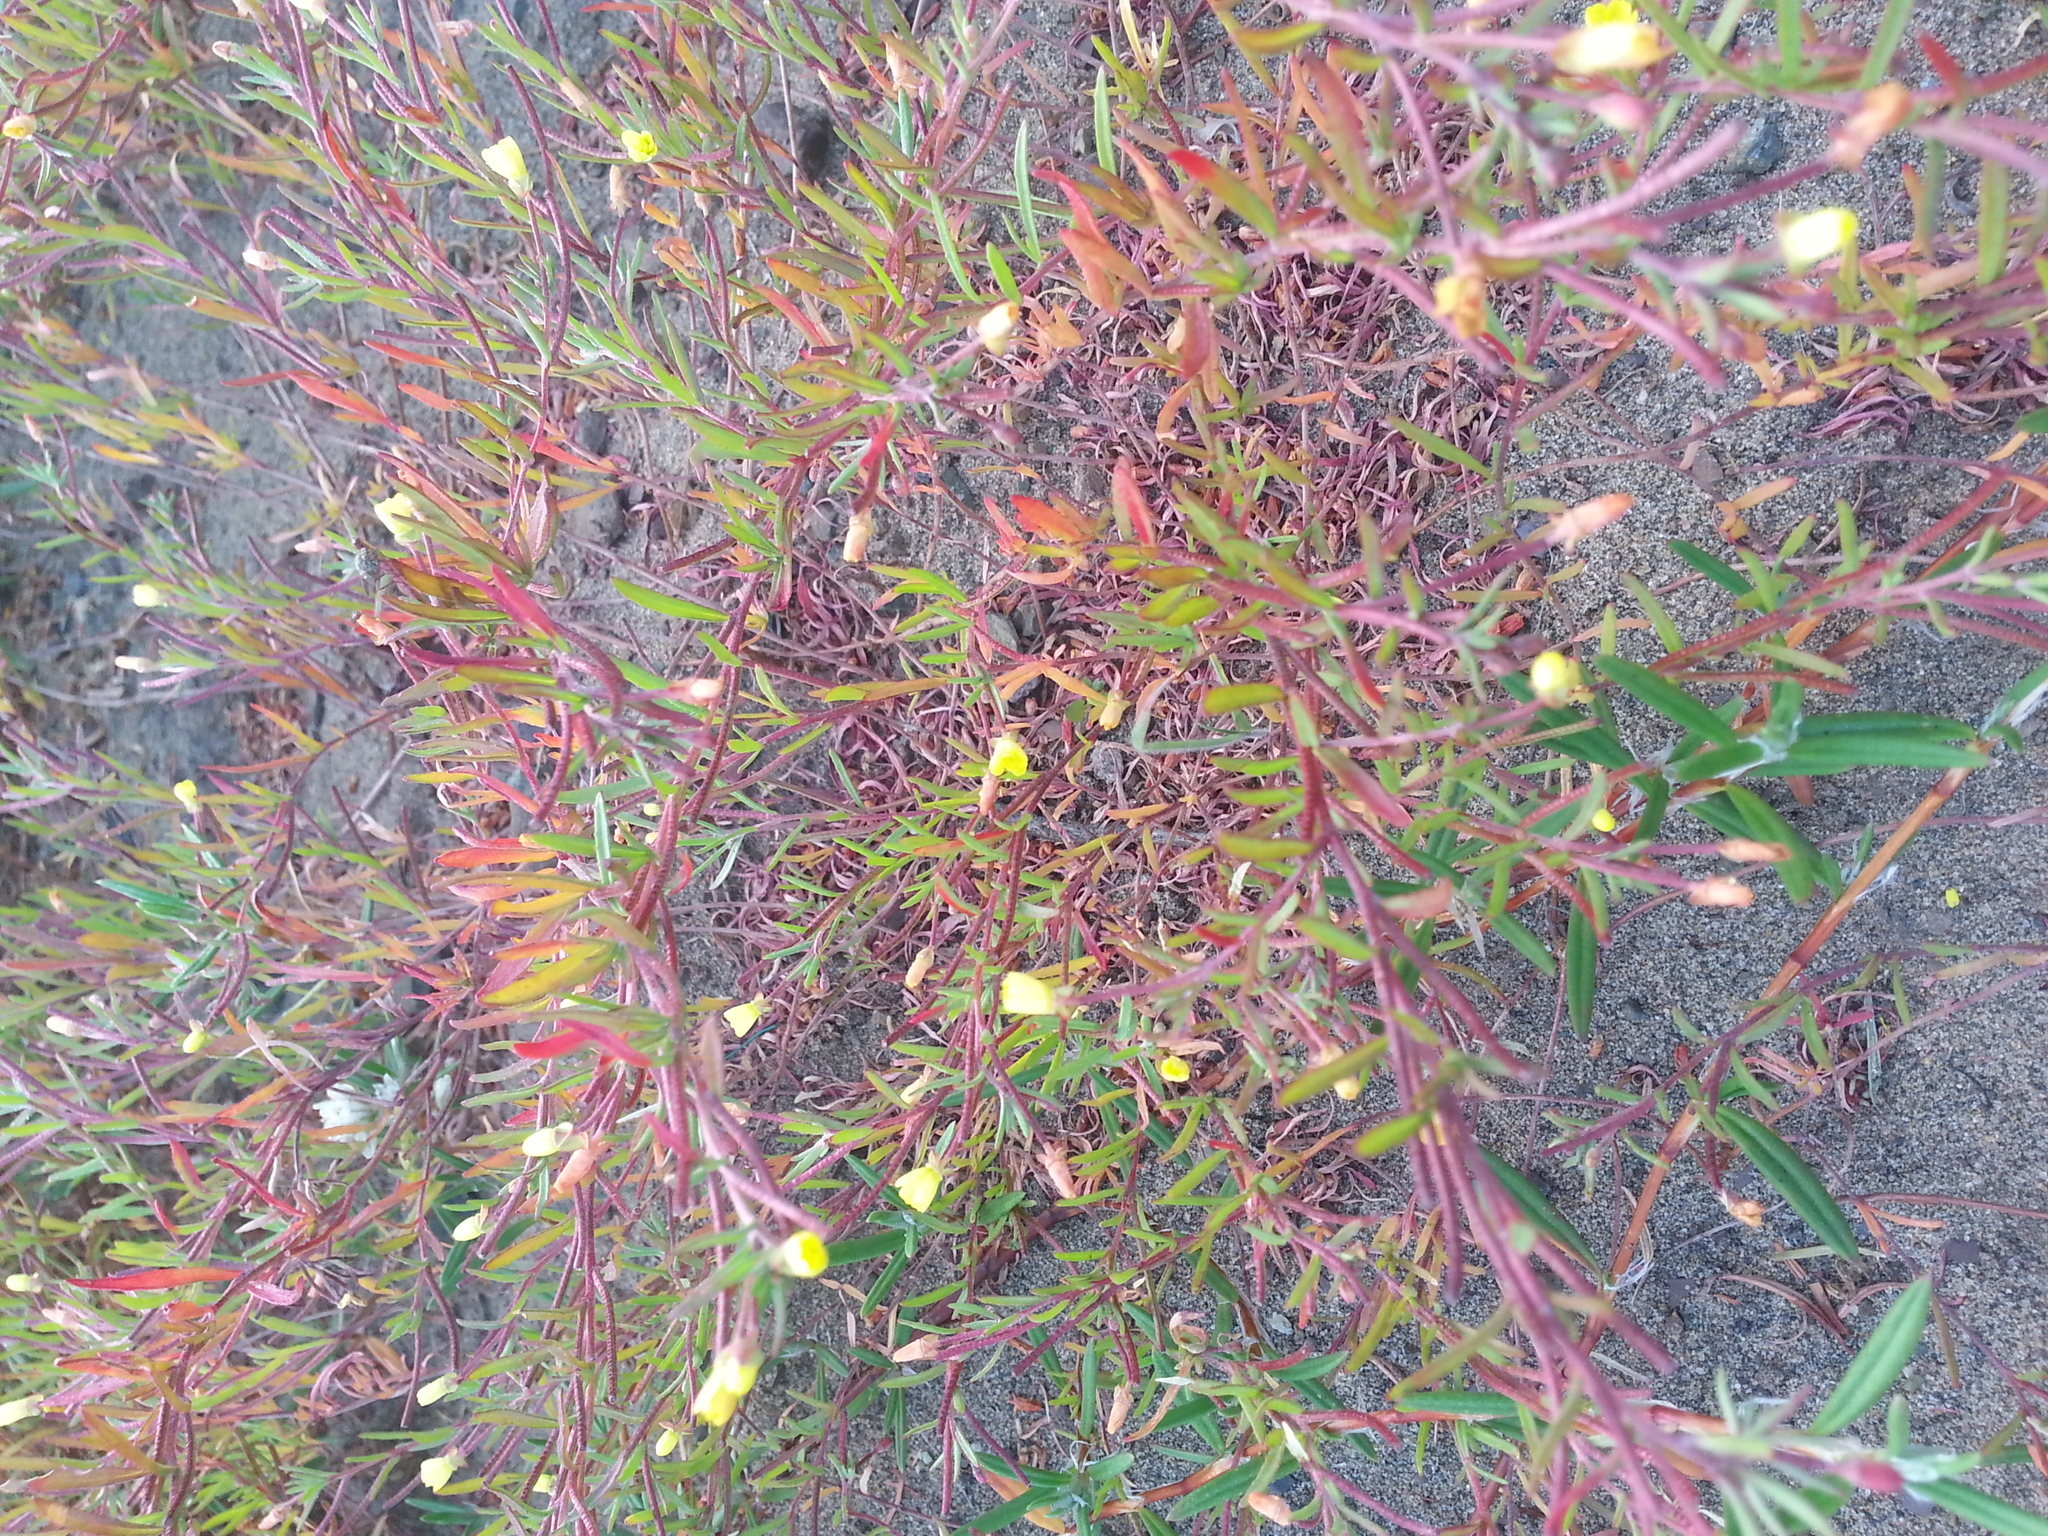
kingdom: Plantae
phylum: Tracheophyta
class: Magnoliopsida
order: Myrtales
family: Onagraceae
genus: Camissonia
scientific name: Camissonia strigulosa
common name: Contorted-primrose
